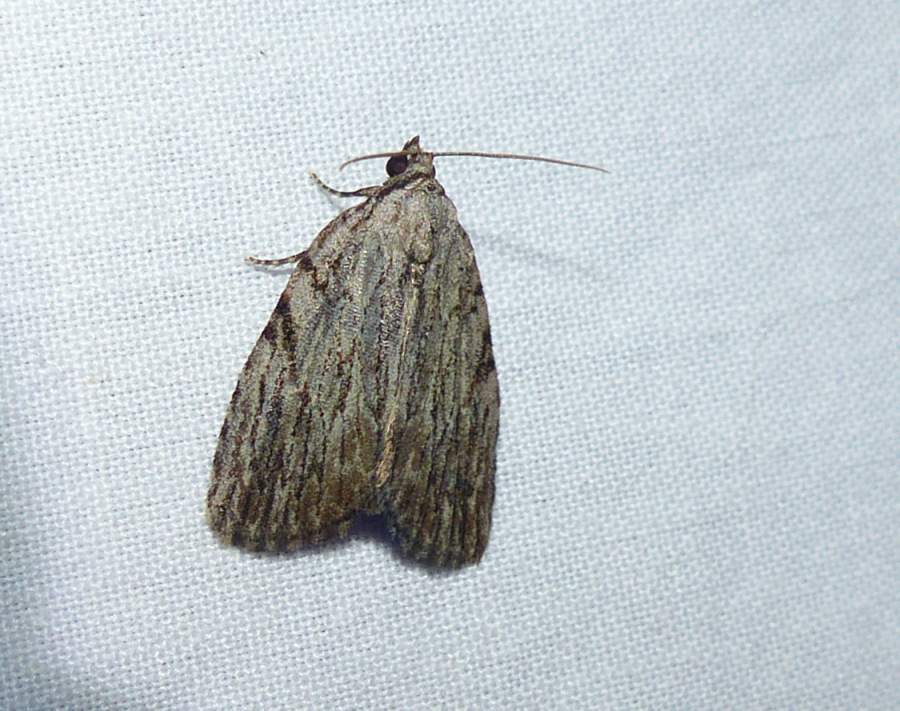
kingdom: Animalia
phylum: Arthropoda
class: Insecta
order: Lepidoptera
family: Noctuidae
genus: Balsa
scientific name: Balsa tristrigella
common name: Three-lined balsa moth
